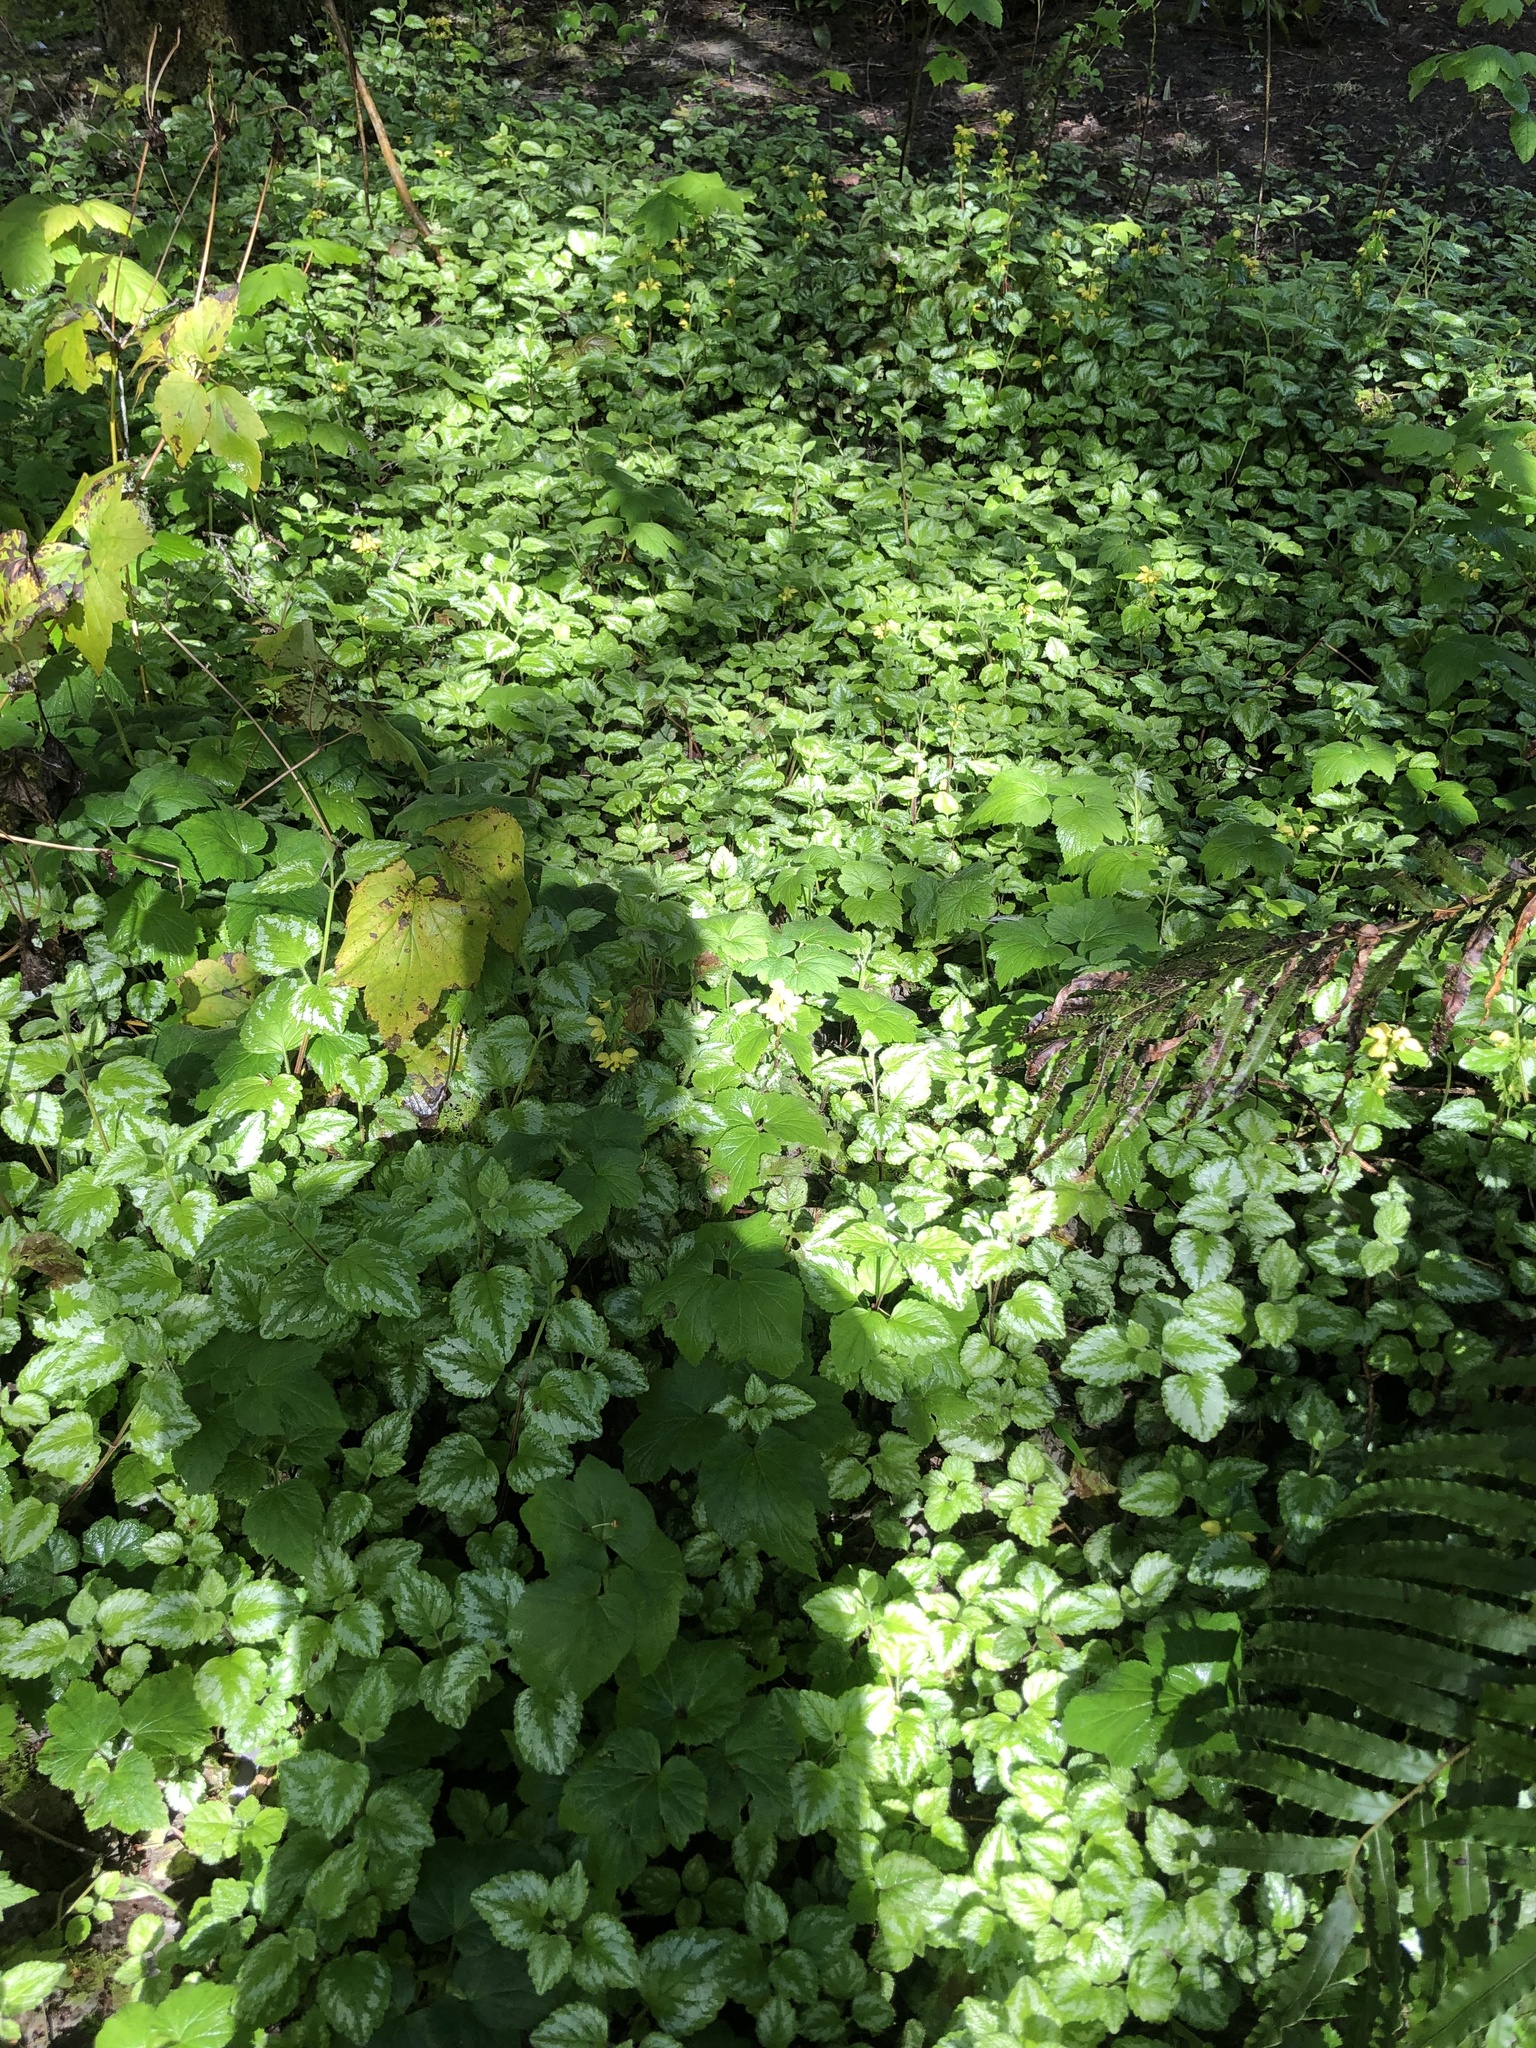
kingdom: Plantae
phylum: Tracheophyta
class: Magnoliopsida
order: Lamiales
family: Lamiaceae
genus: Lamium
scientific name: Lamium galeobdolon
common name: Yellow archangel
